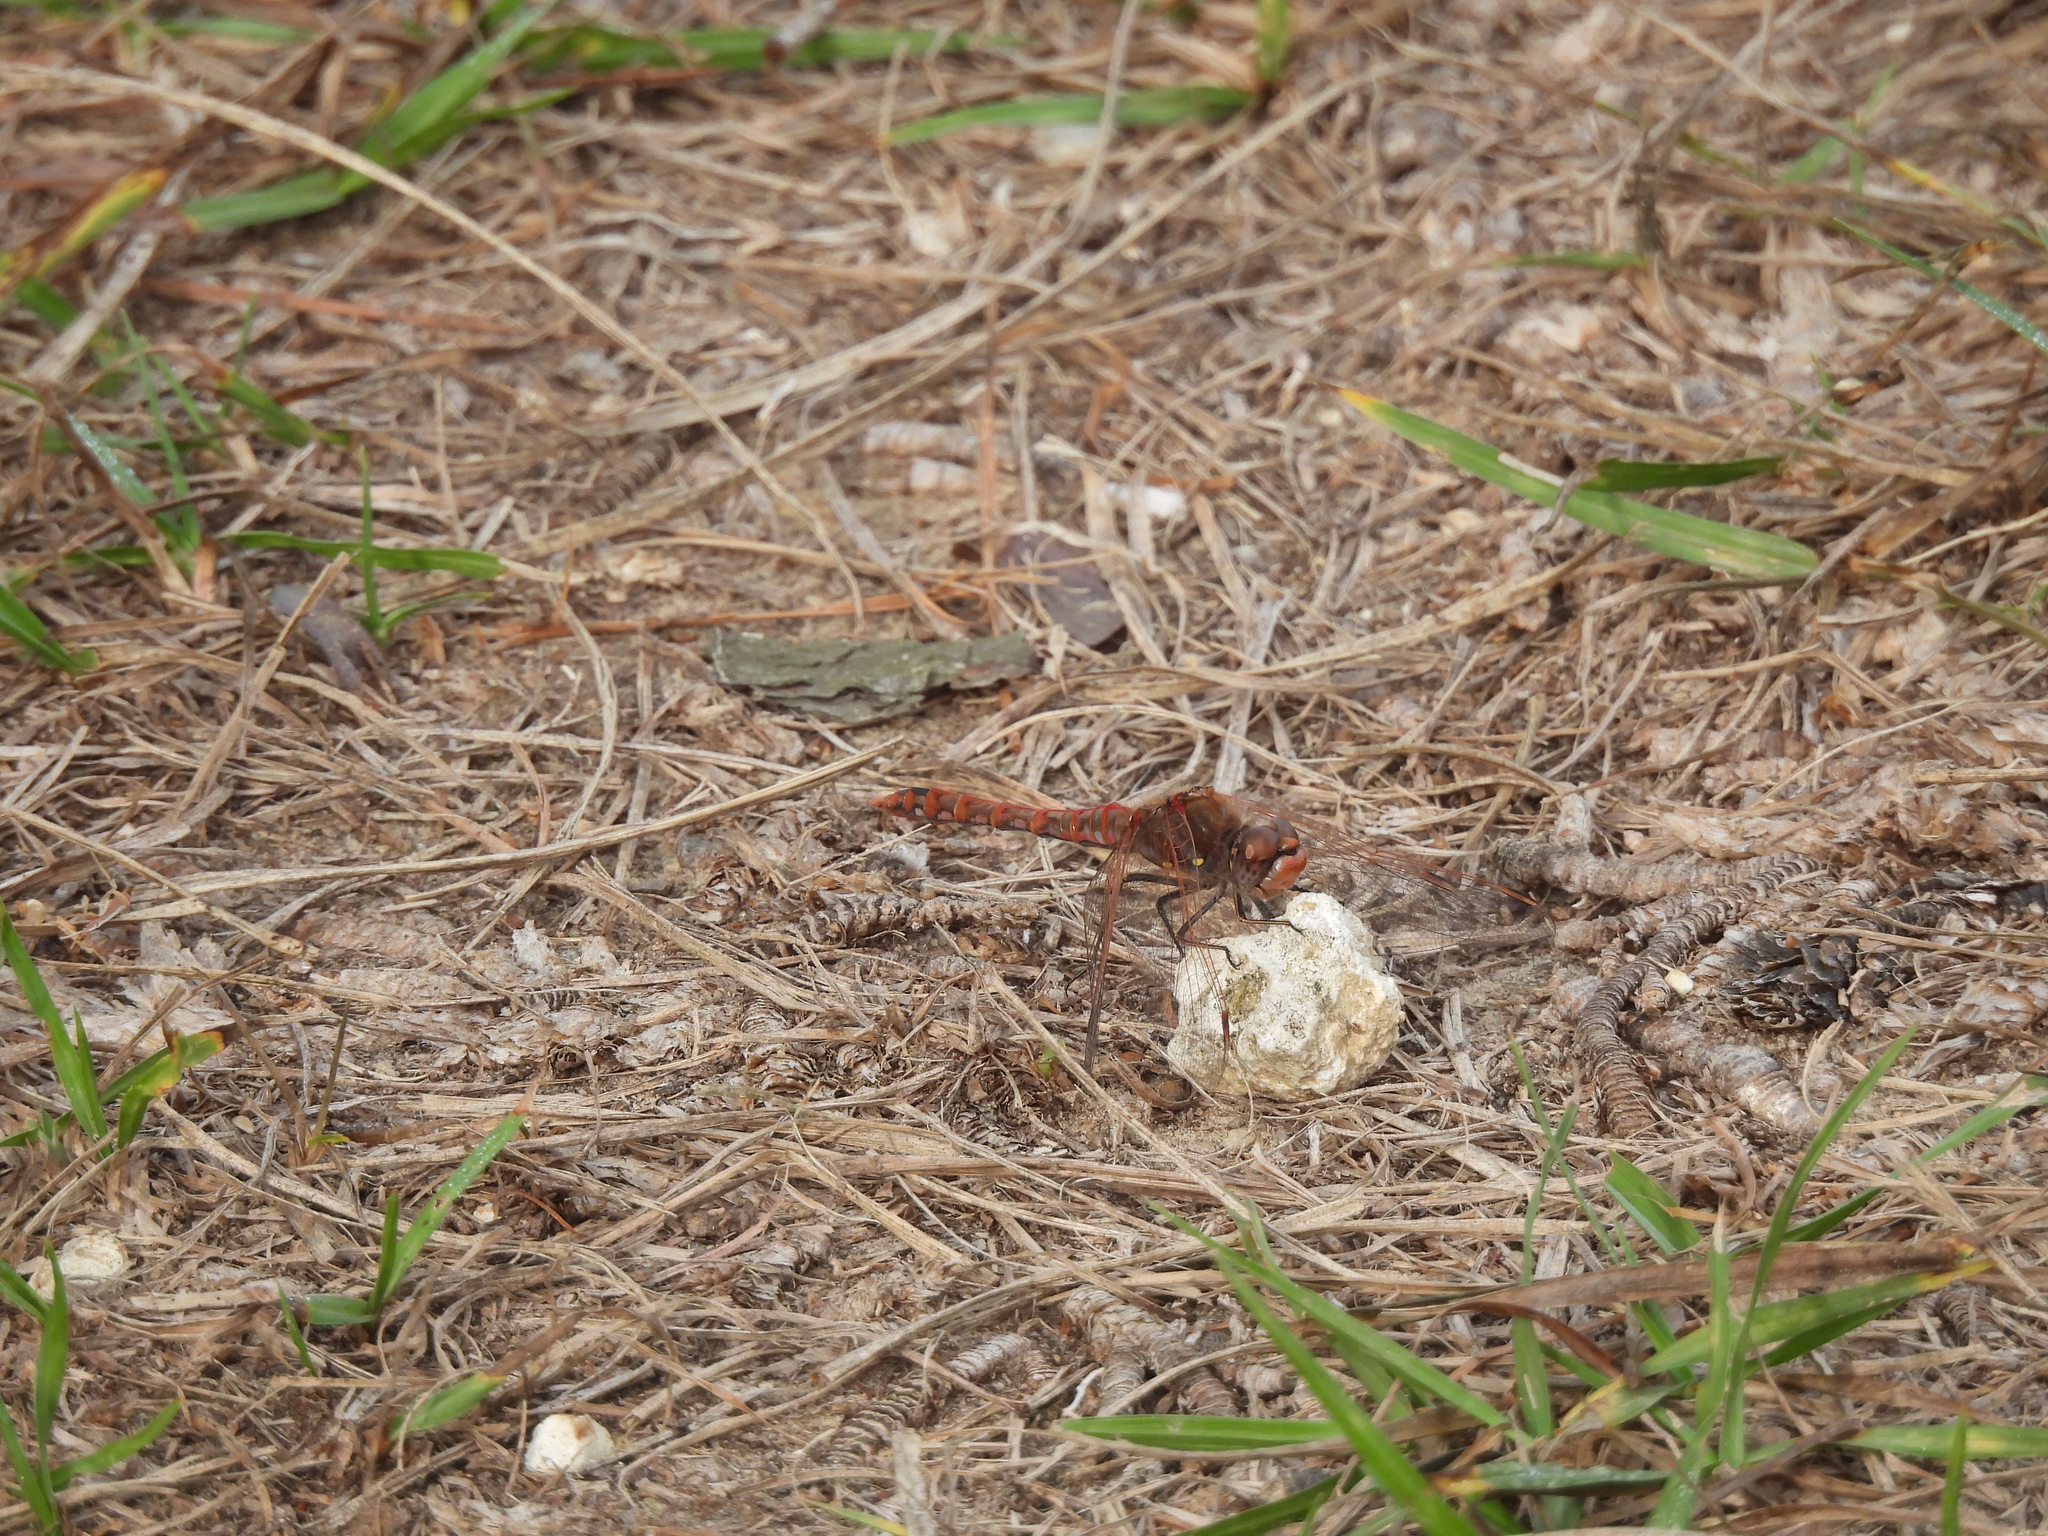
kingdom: Animalia
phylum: Arthropoda
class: Insecta
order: Odonata
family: Libellulidae
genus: Sympetrum
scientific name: Sympetrum corruptum
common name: Variegated meadowhawk
